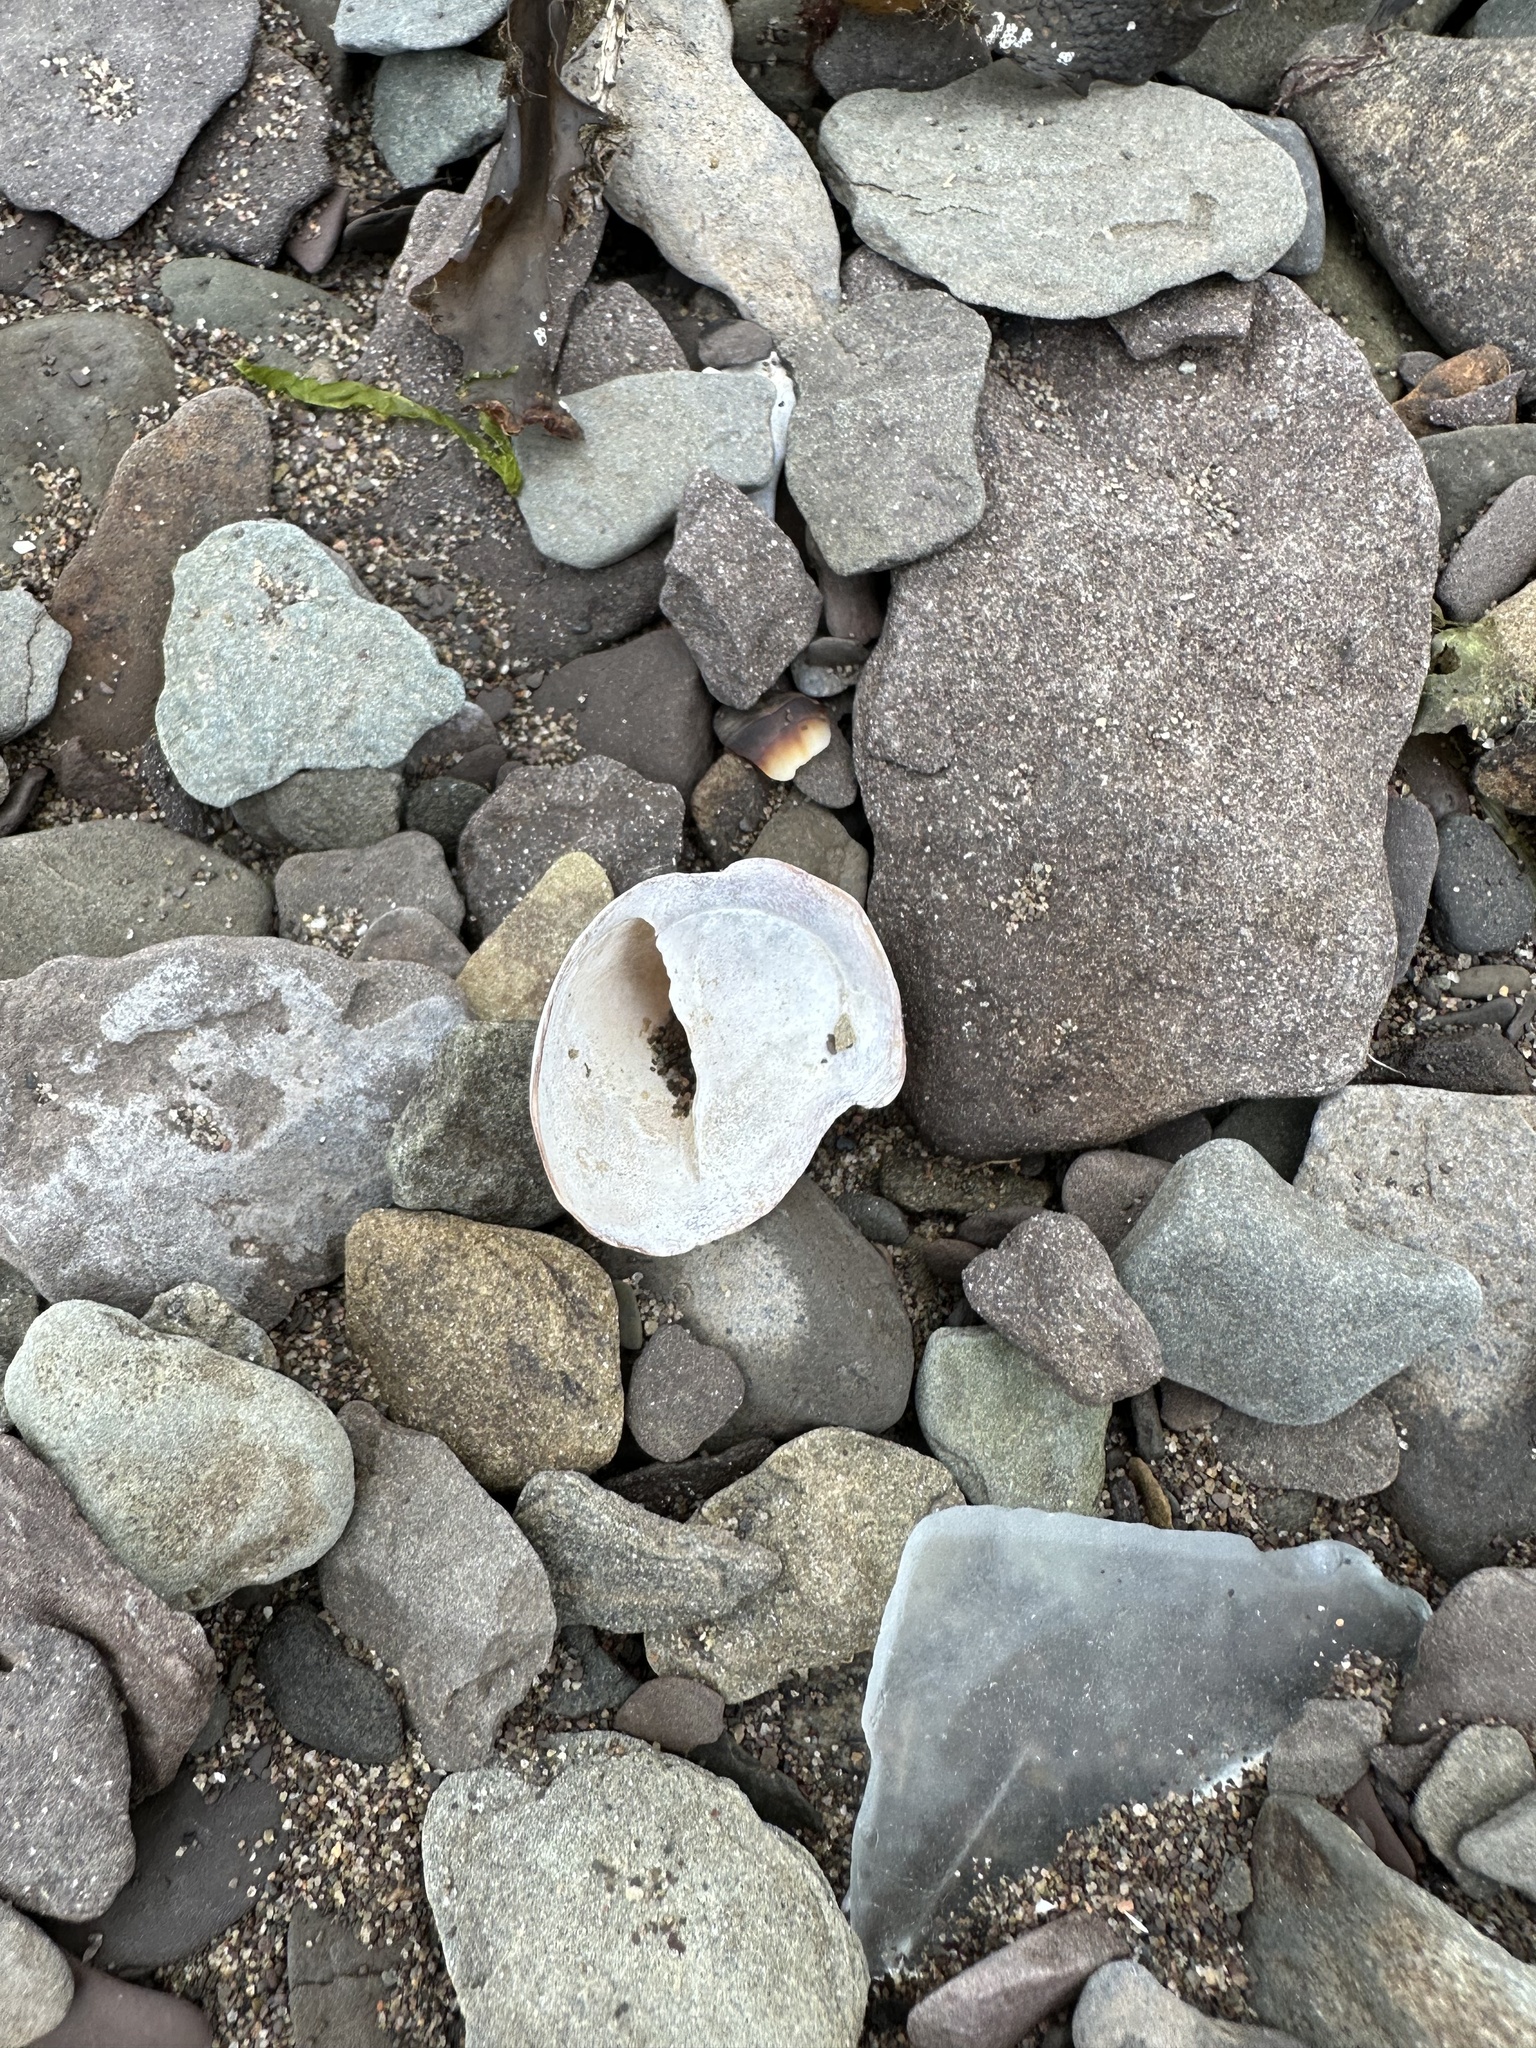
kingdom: Animalia
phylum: Mollusca
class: Gastropoda
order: Littorinimorpha
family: Calyptraeidae
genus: Crepidula
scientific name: Crepidula fornicata
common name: Slipper limpet
